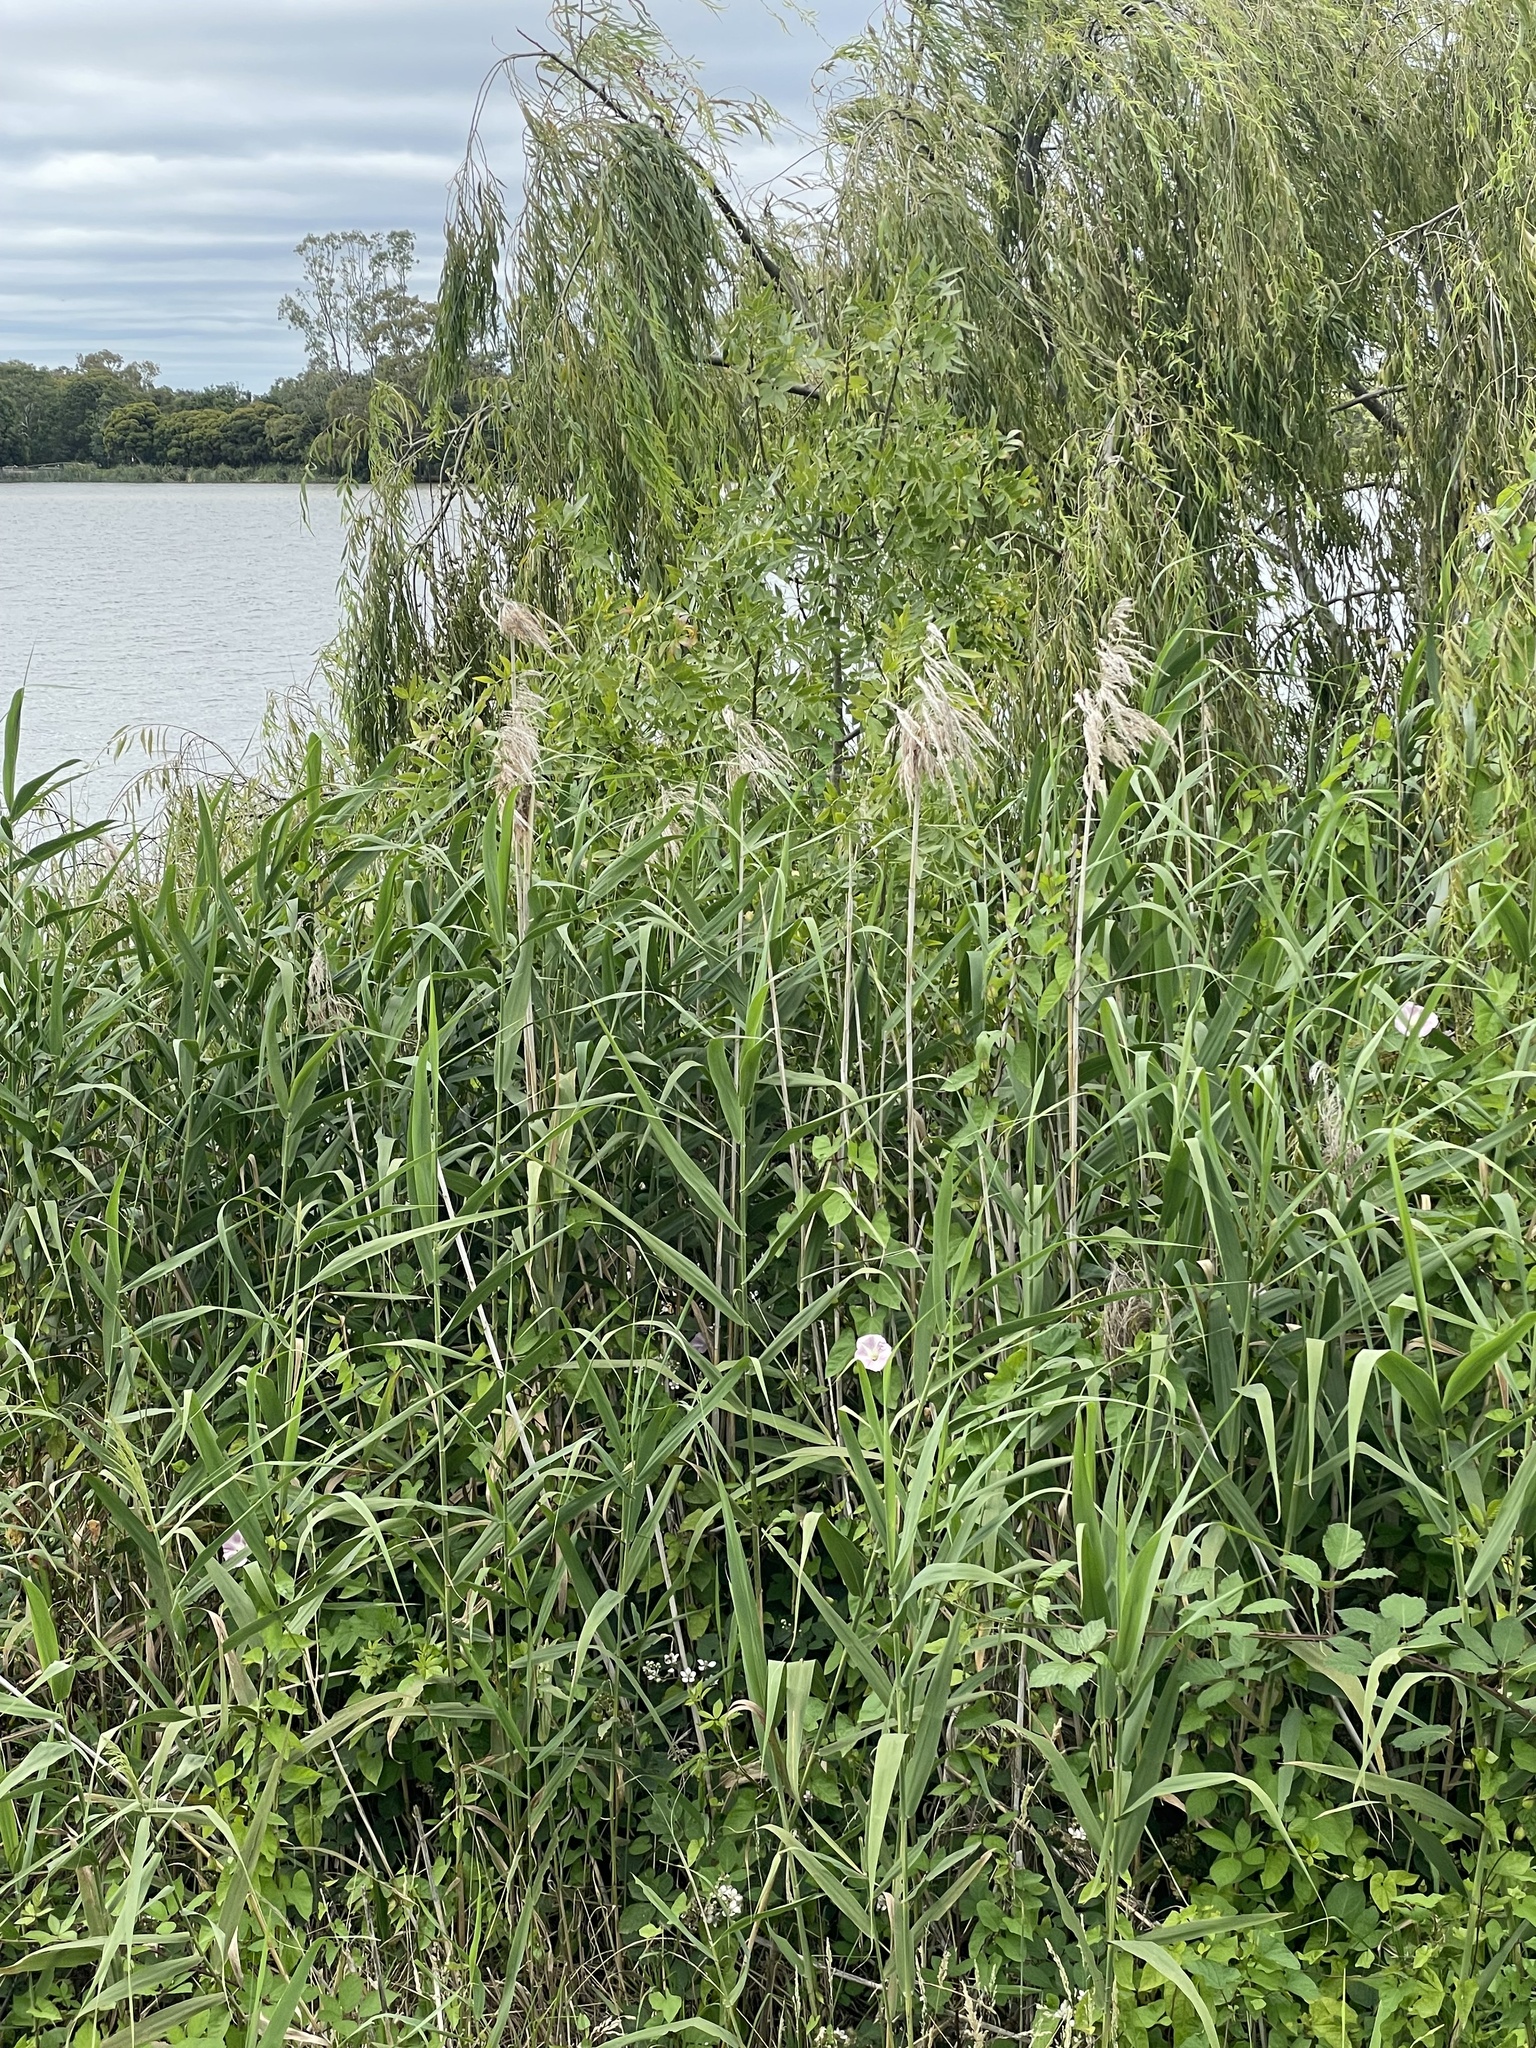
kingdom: Plantae
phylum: Tracheophyta
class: Liliopsida
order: Poales
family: Poaceae
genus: Phragmites
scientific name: Phragmites australis
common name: Common reed
